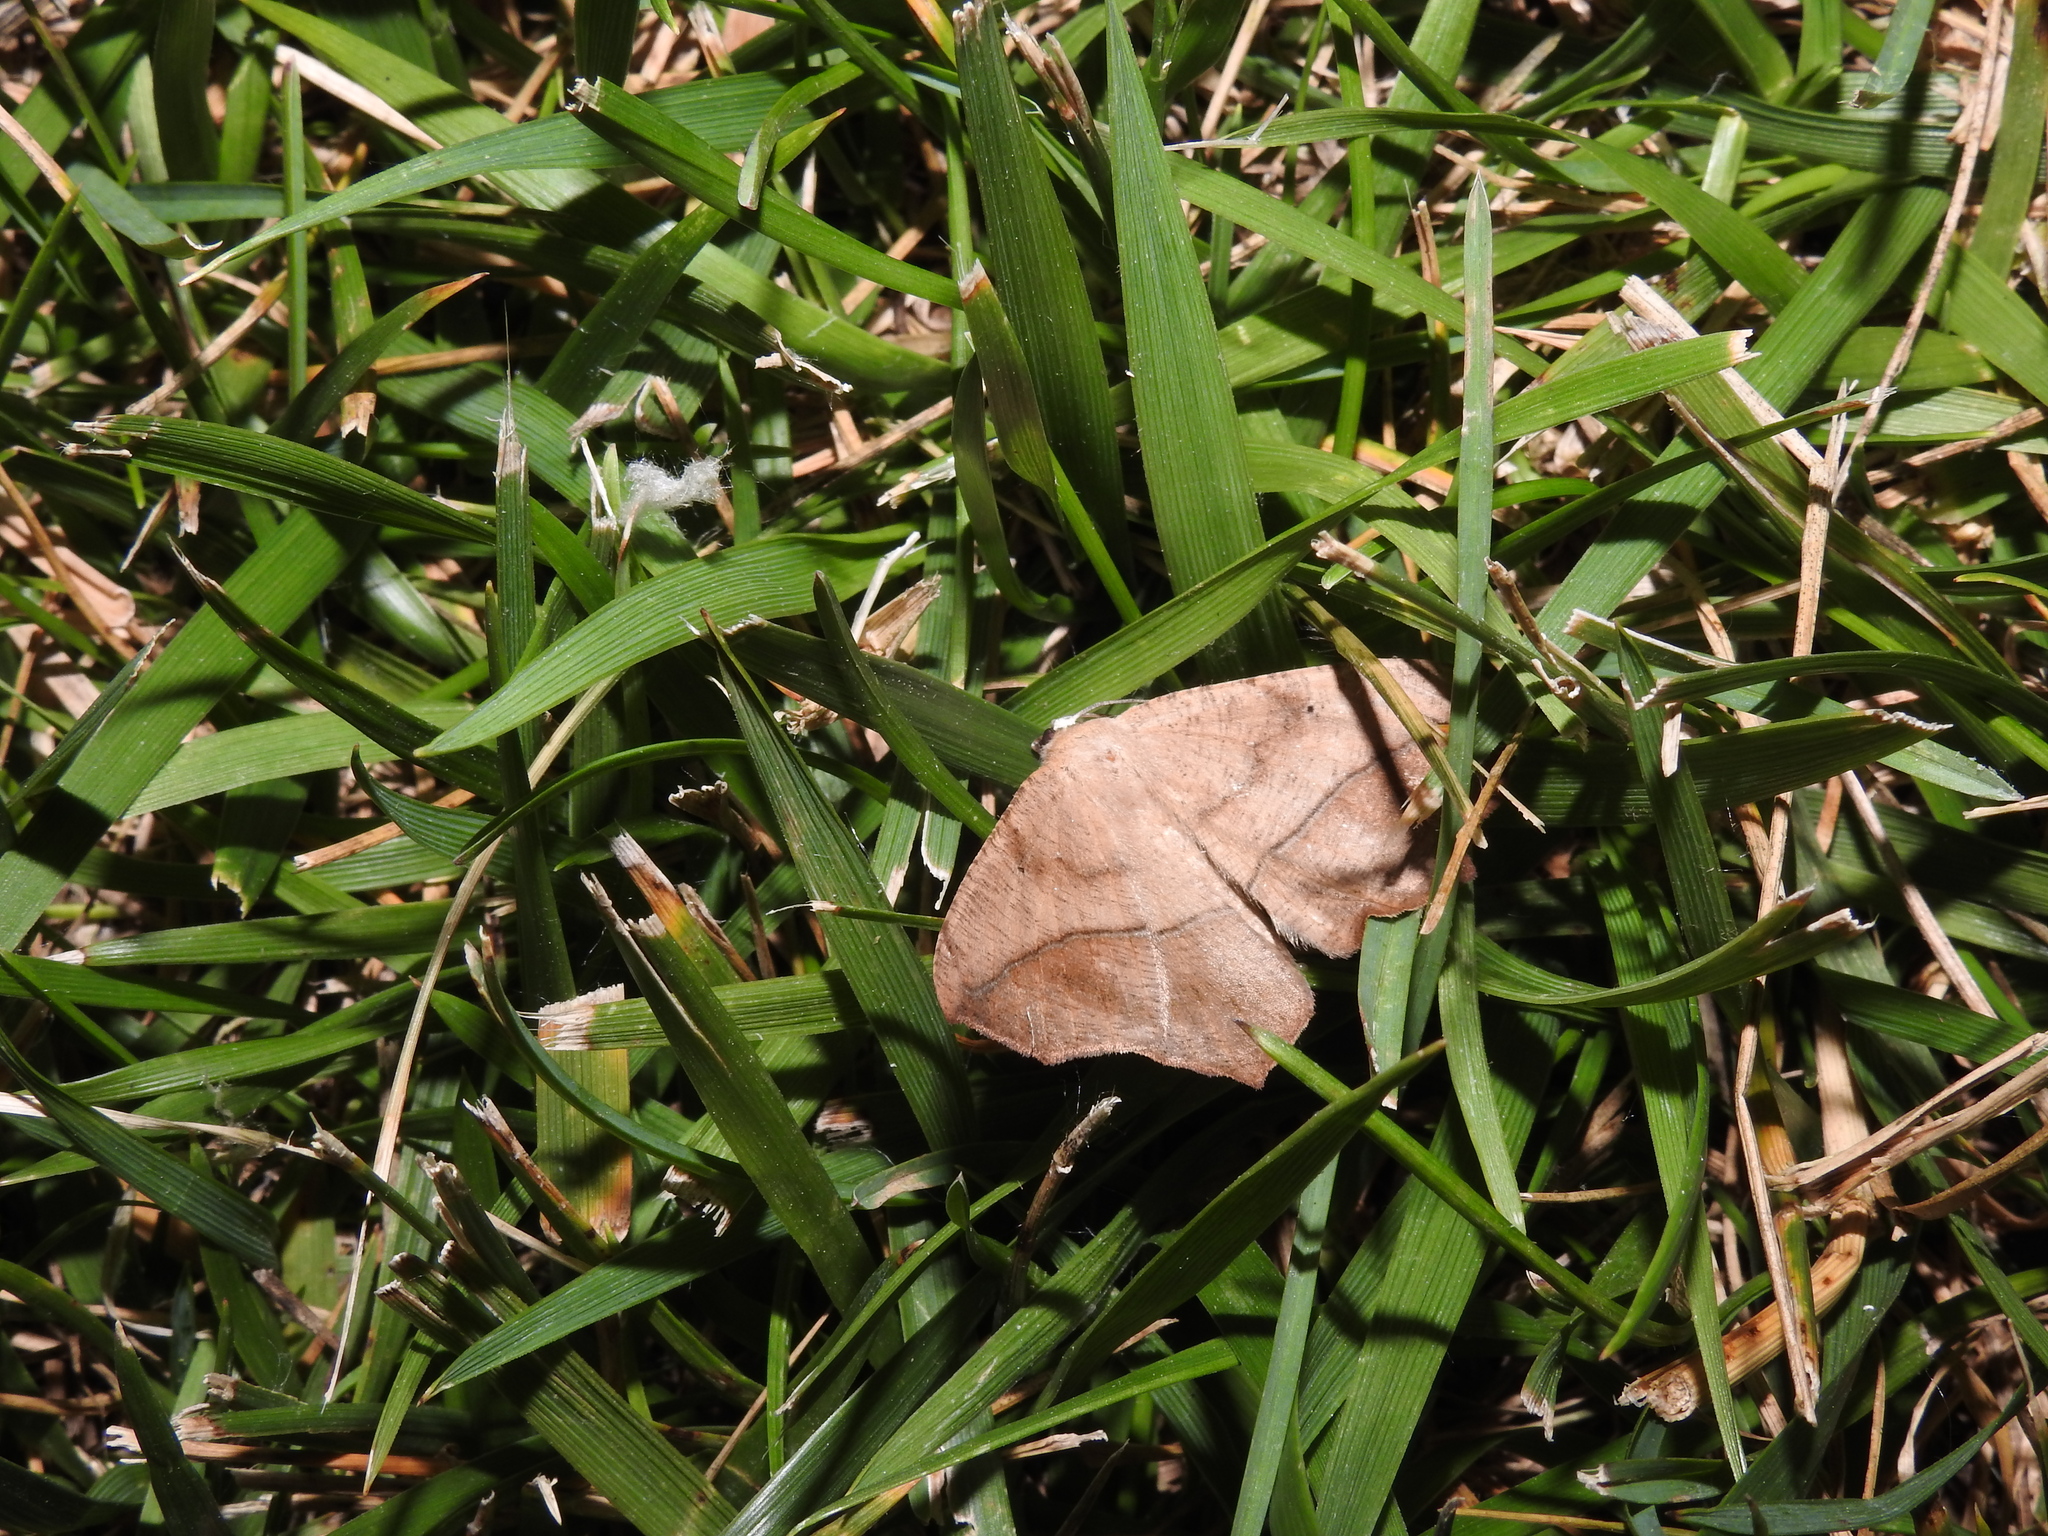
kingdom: Animalia
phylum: Arthropoda
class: Insecta
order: Lepidoptera
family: Geometridae
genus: Prochoerodes
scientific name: Prochoerodes lineola
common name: Large maple spanworm
